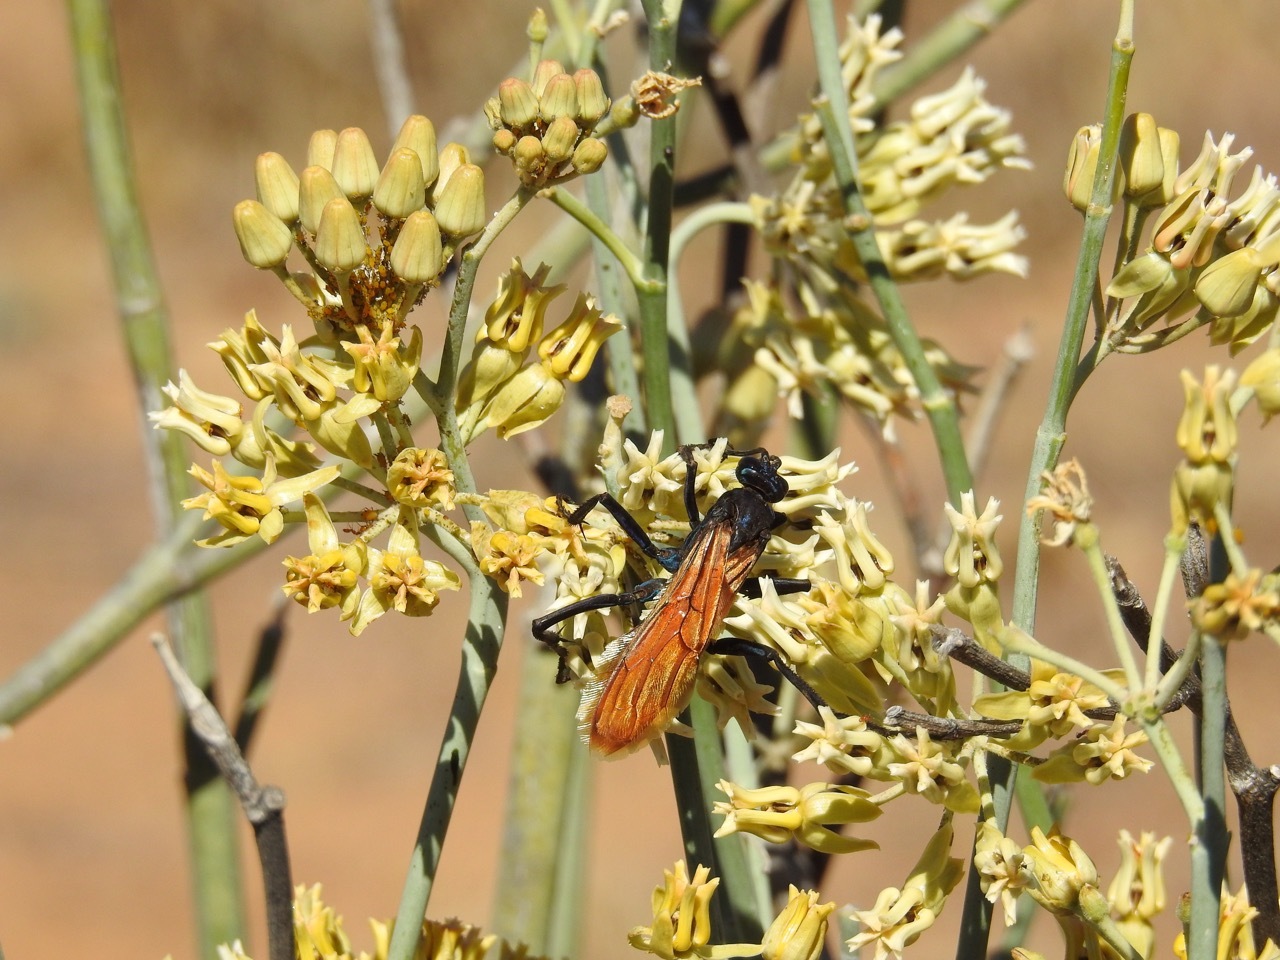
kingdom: Animalia
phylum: Arthropoda
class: Insecta
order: Hymenoptera
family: Pompilidae
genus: Pepsis
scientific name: Pepsis thisbe
